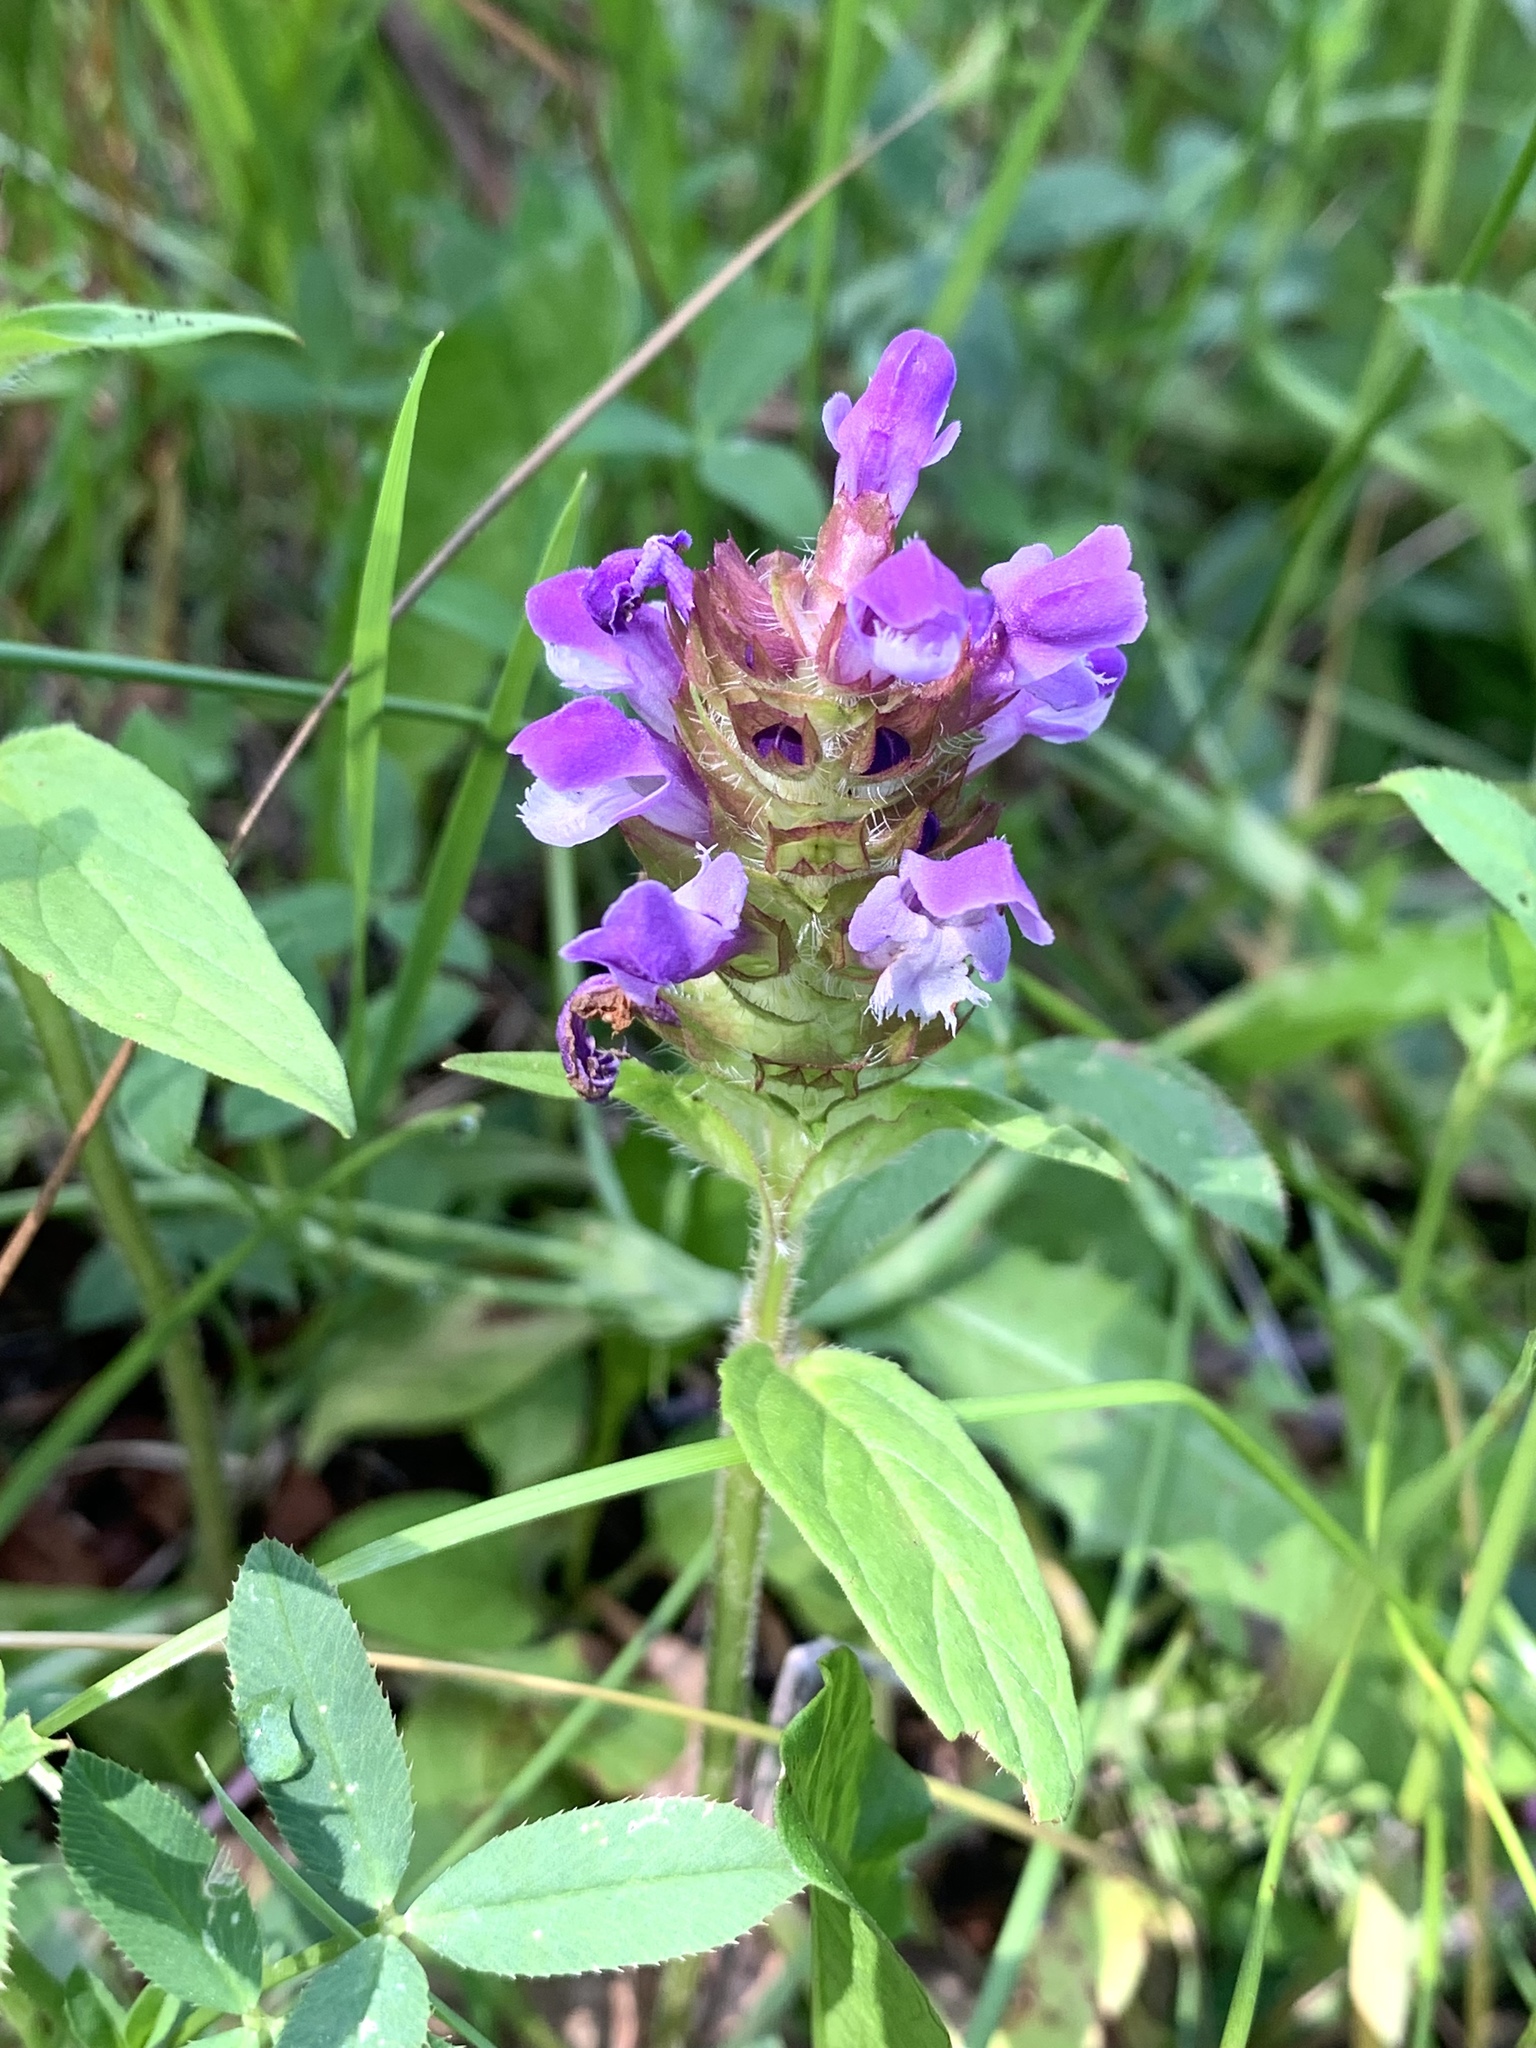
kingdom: Plantae
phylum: Tracheophyta
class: Magnoliopsida
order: Lamiales
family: Lamiaceae
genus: Prunella
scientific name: Prunella vulgaris
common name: Heal-all
